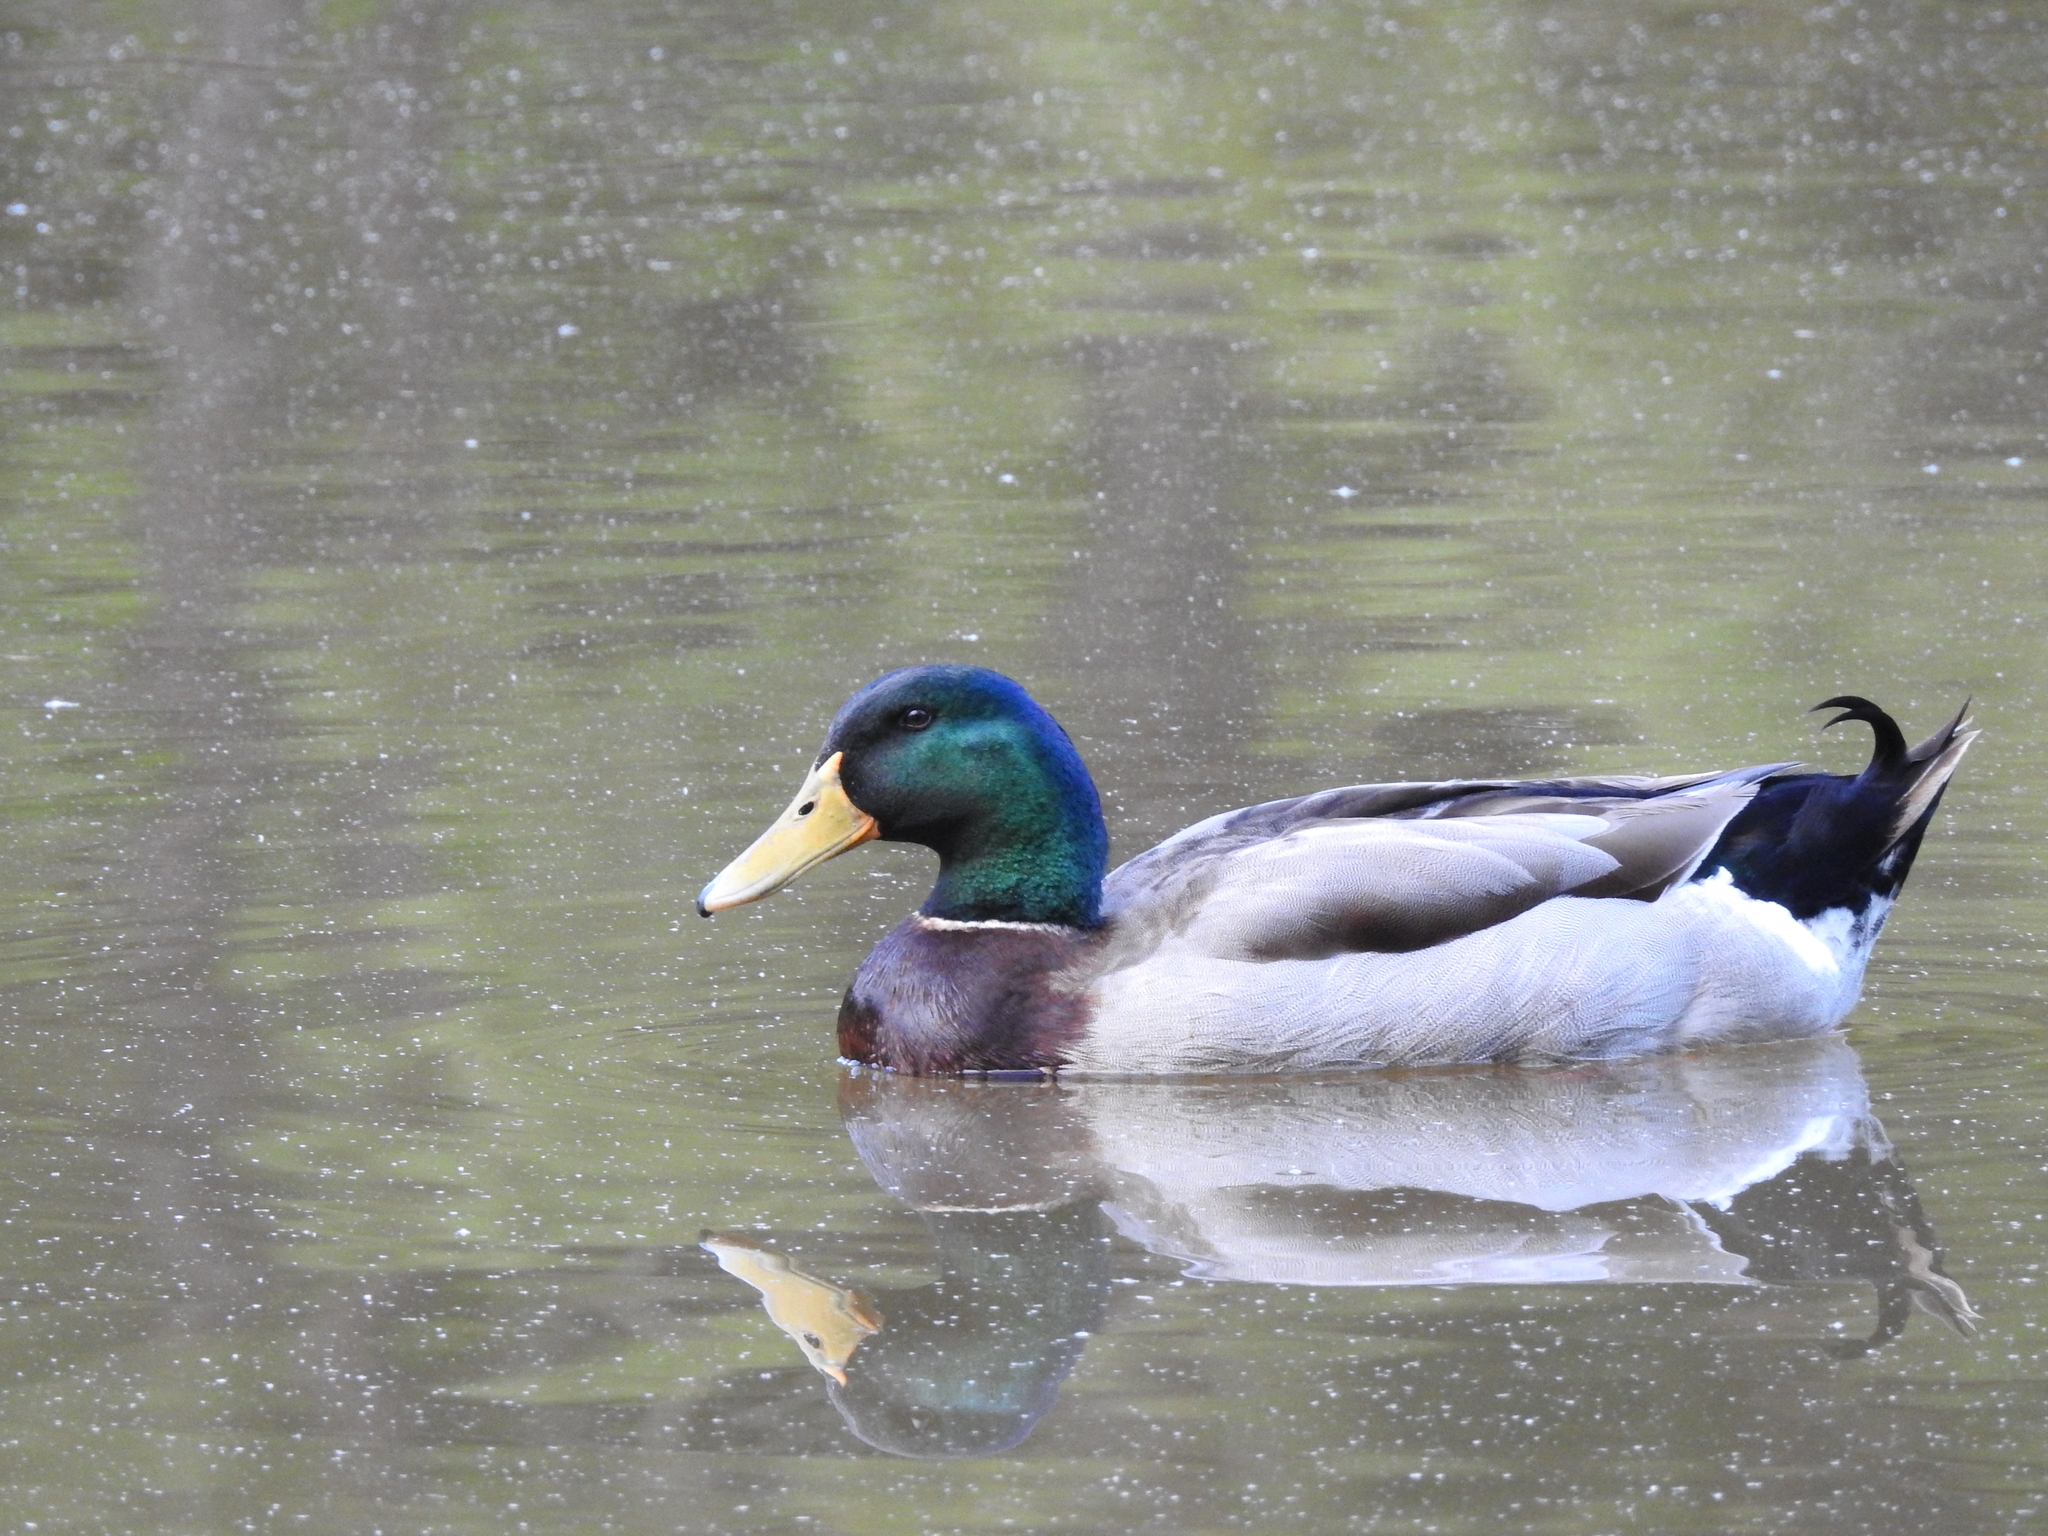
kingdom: Animalia
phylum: Chordata
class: Aves
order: Anseriformes
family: Anatidae
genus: Anas
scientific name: Anas platyrhynchos
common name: Mallard
